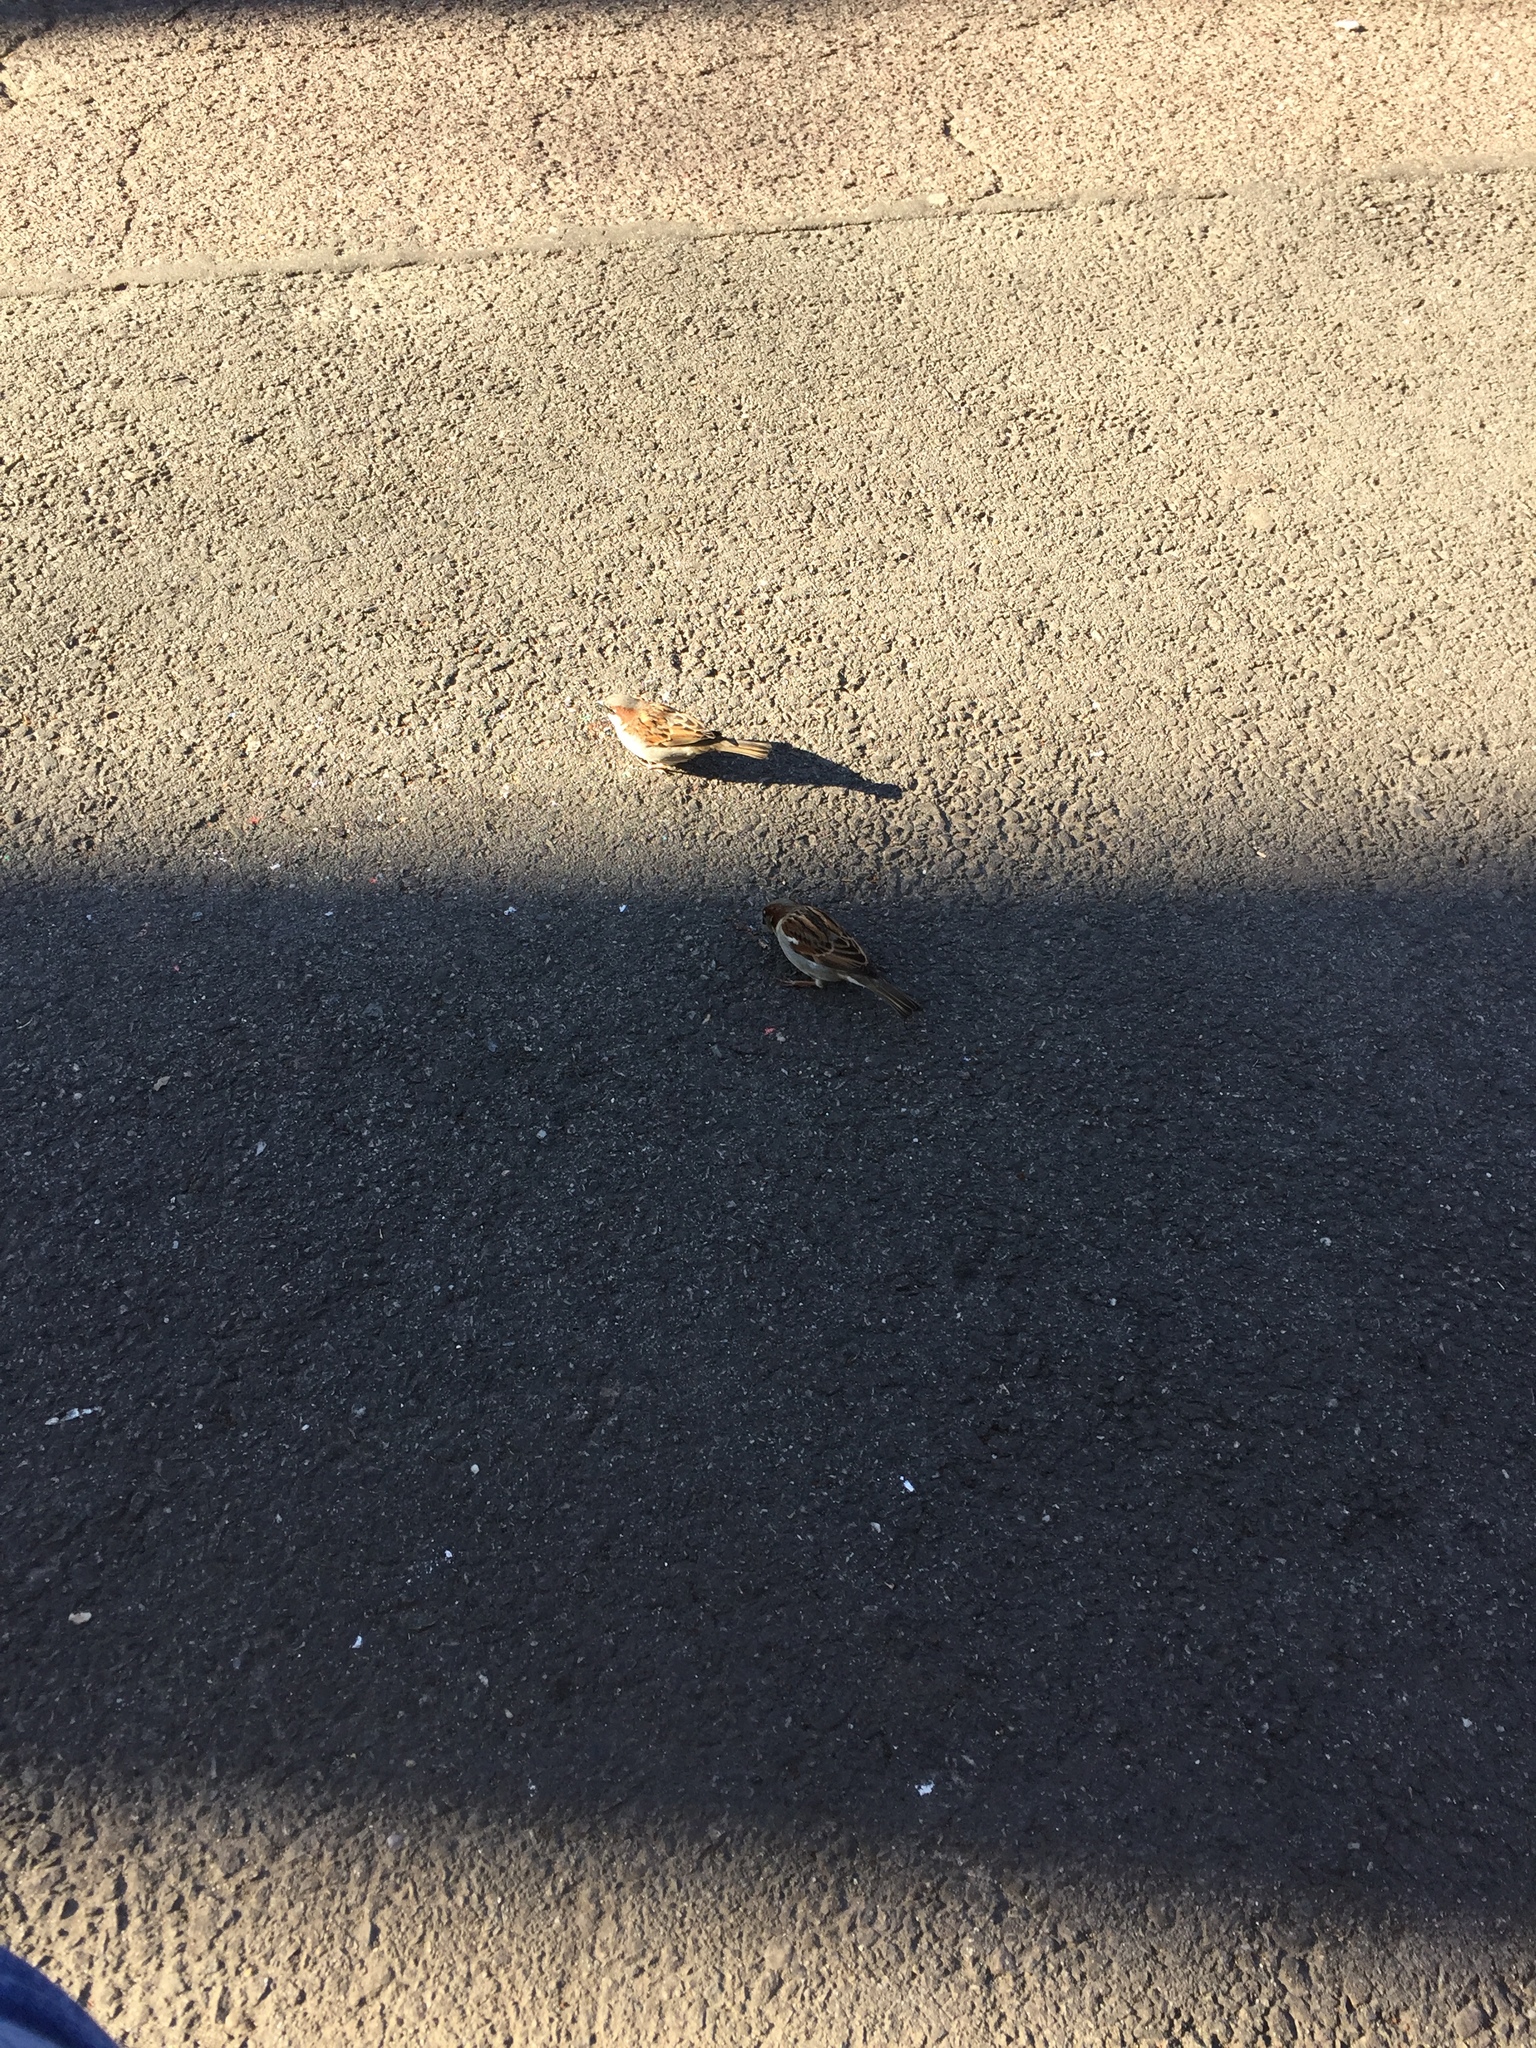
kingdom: Animalia
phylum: Chordata
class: Aves
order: Passeriformes
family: Passeridae
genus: Passer
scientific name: Passer domesticus
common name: House sparrow
